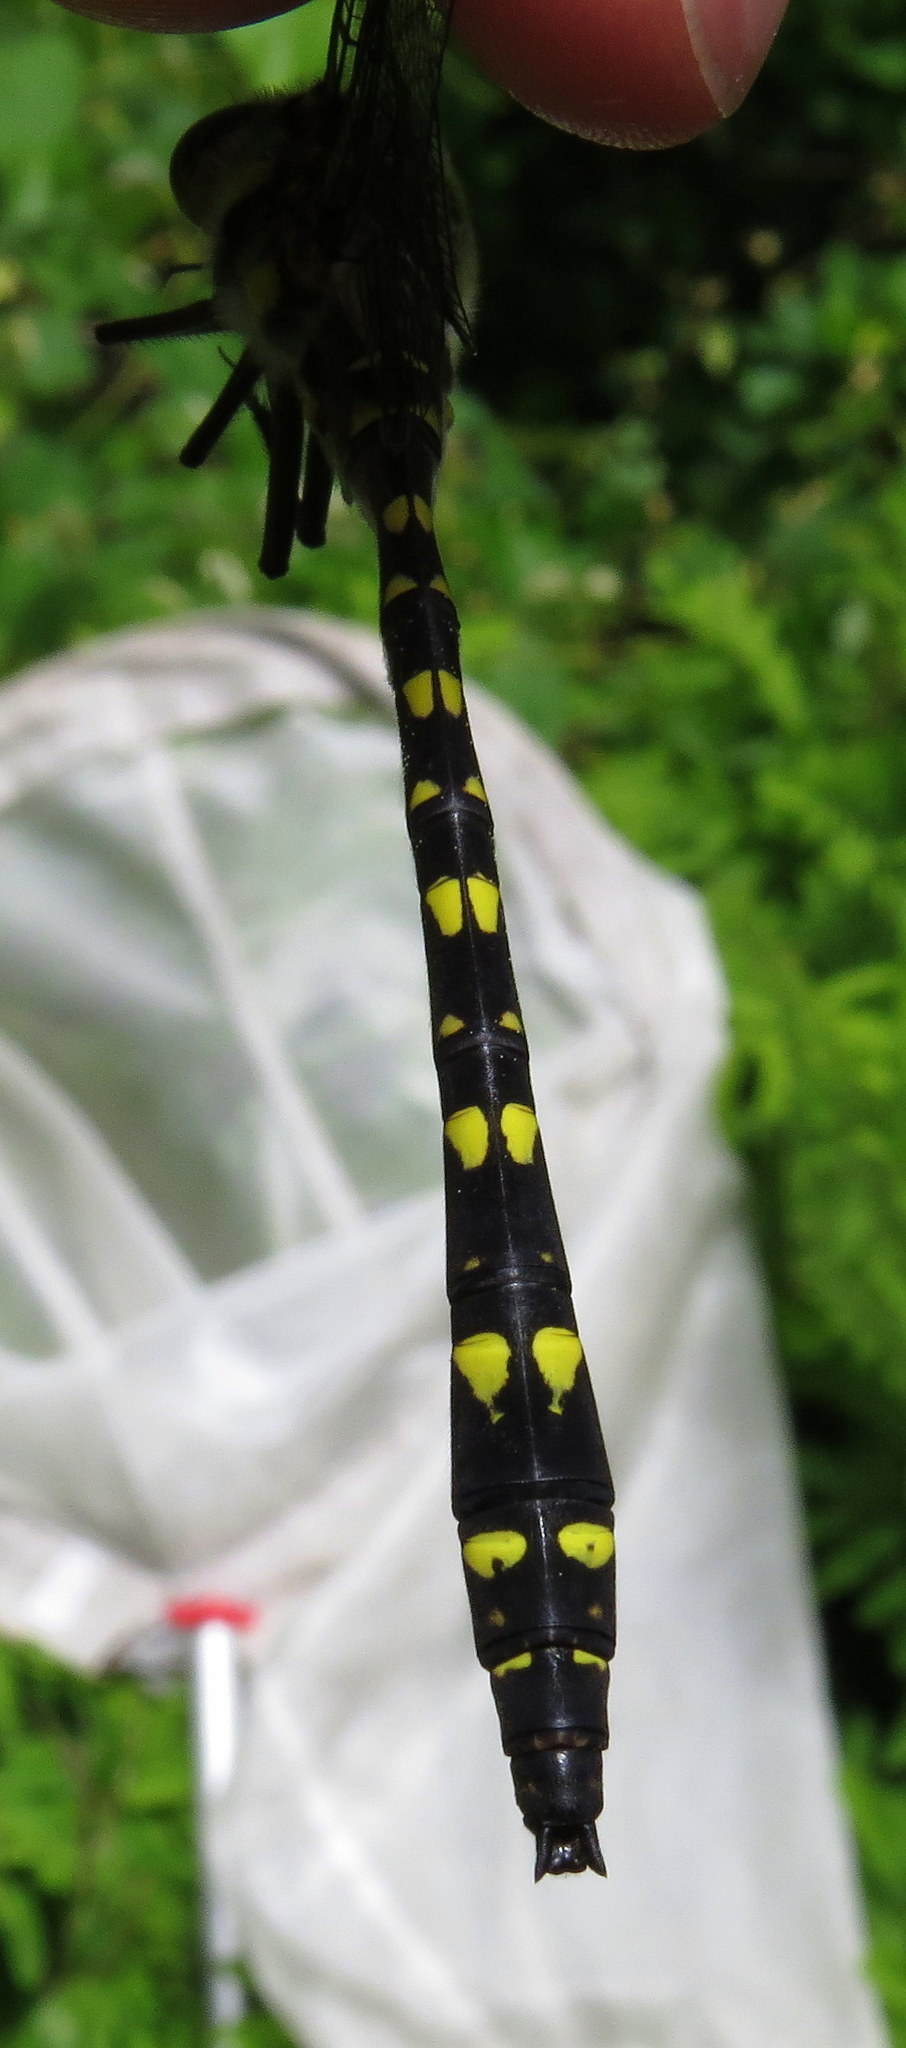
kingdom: Animalia
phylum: Arthropoda
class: Insecta
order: Odonata
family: Cordulegastridae
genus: Cordulegaster
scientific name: Cordulegaster maculata
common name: Twin-spotted spiketail
